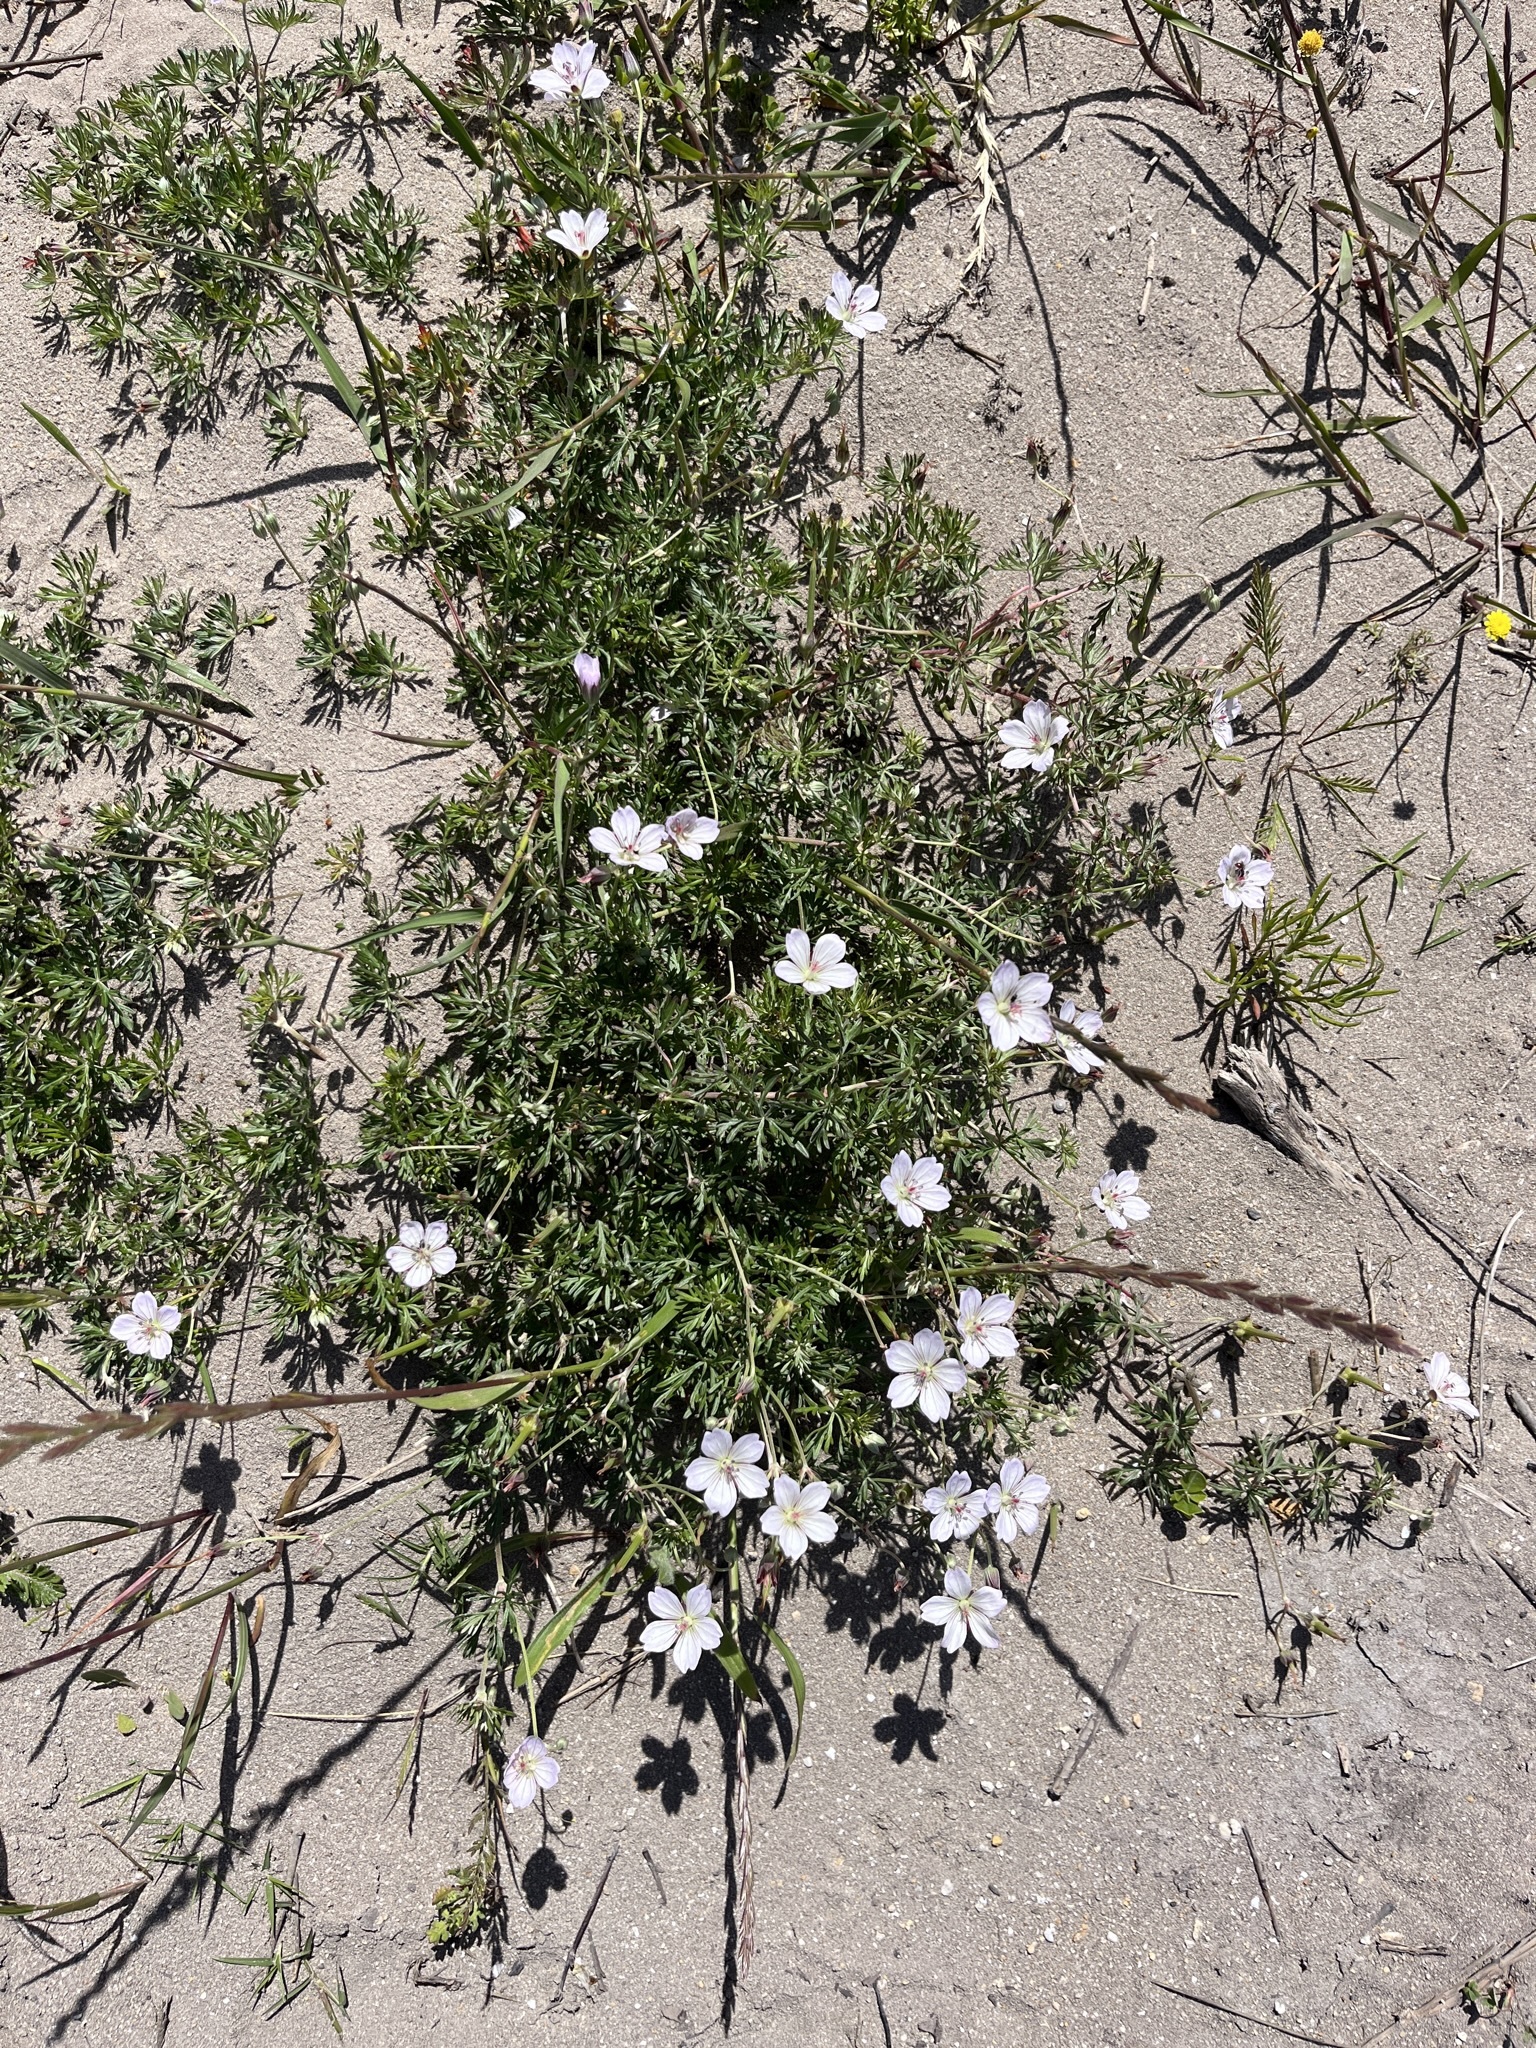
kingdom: Plantae
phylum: Tracheophyta
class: Magnoliopsida
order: Geraniales
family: Geraniaceae
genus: Geranium
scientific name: Geranium incanum
